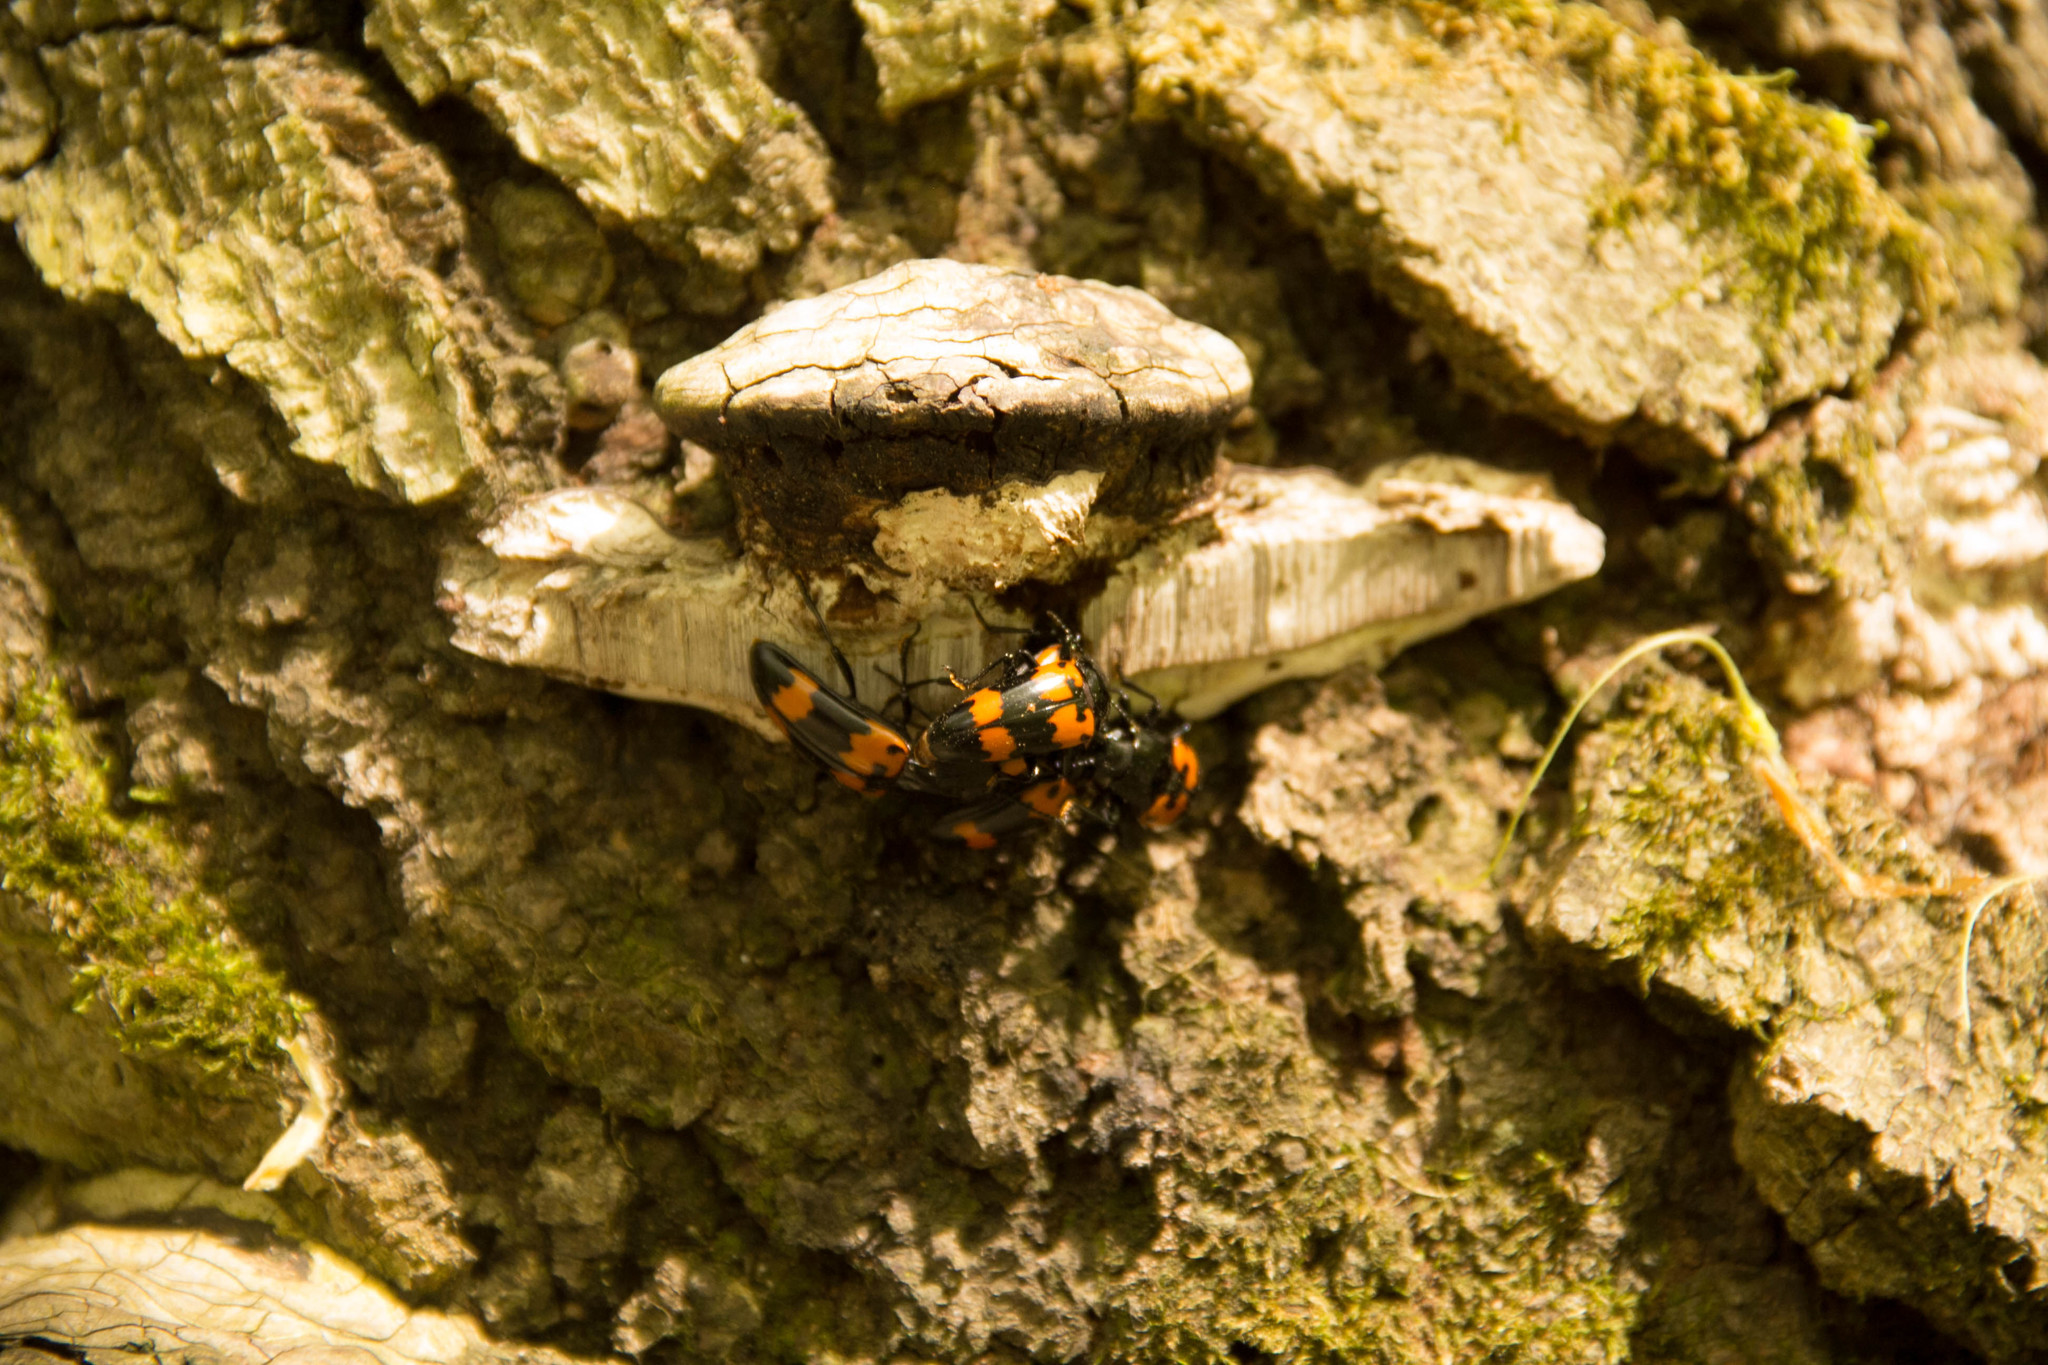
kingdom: Animalia
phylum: Arthropoda
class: Insecta
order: Coleoptera
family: Erotylidae
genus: Megalodacne
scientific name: Megalodacne heros
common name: Pleasing fungus beetle
